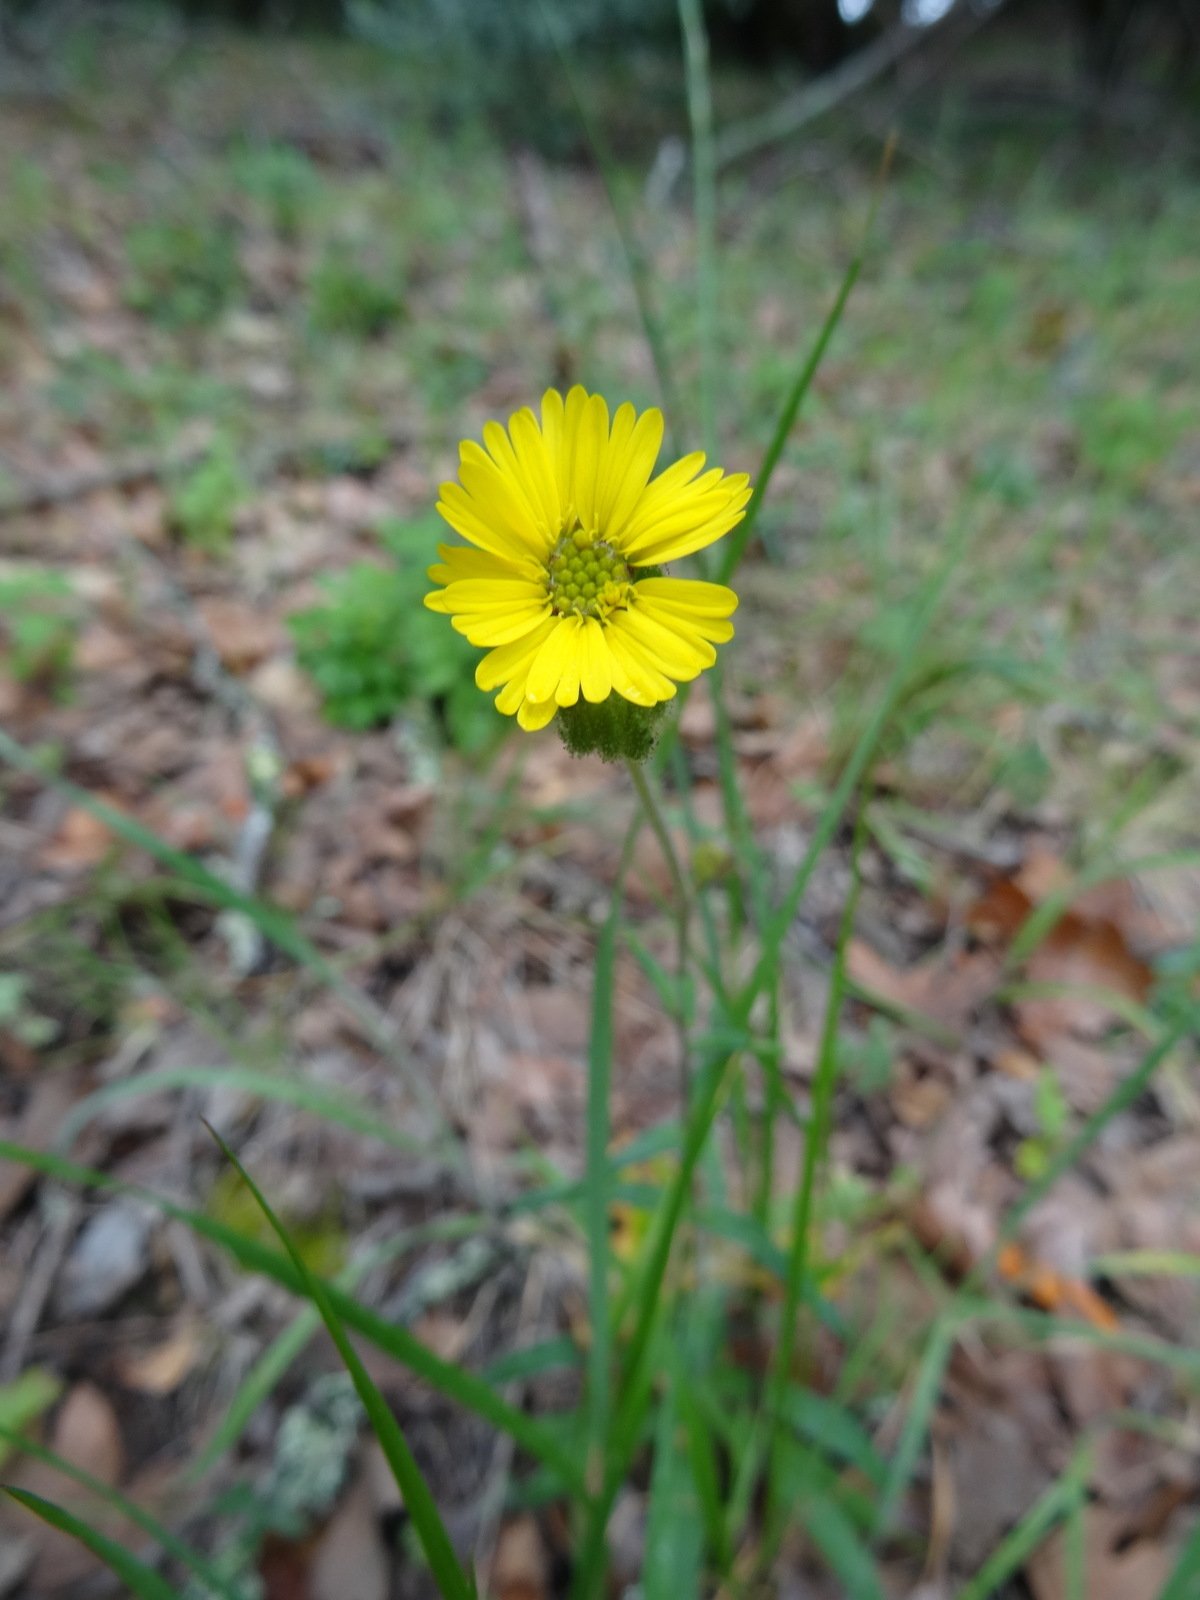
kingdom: Plantae
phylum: Tracheophyta
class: Magnoliopsida
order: Asterales
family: Asteraceae
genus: Anisocarpus
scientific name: Anisocarpus madioides
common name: Woodland madia
